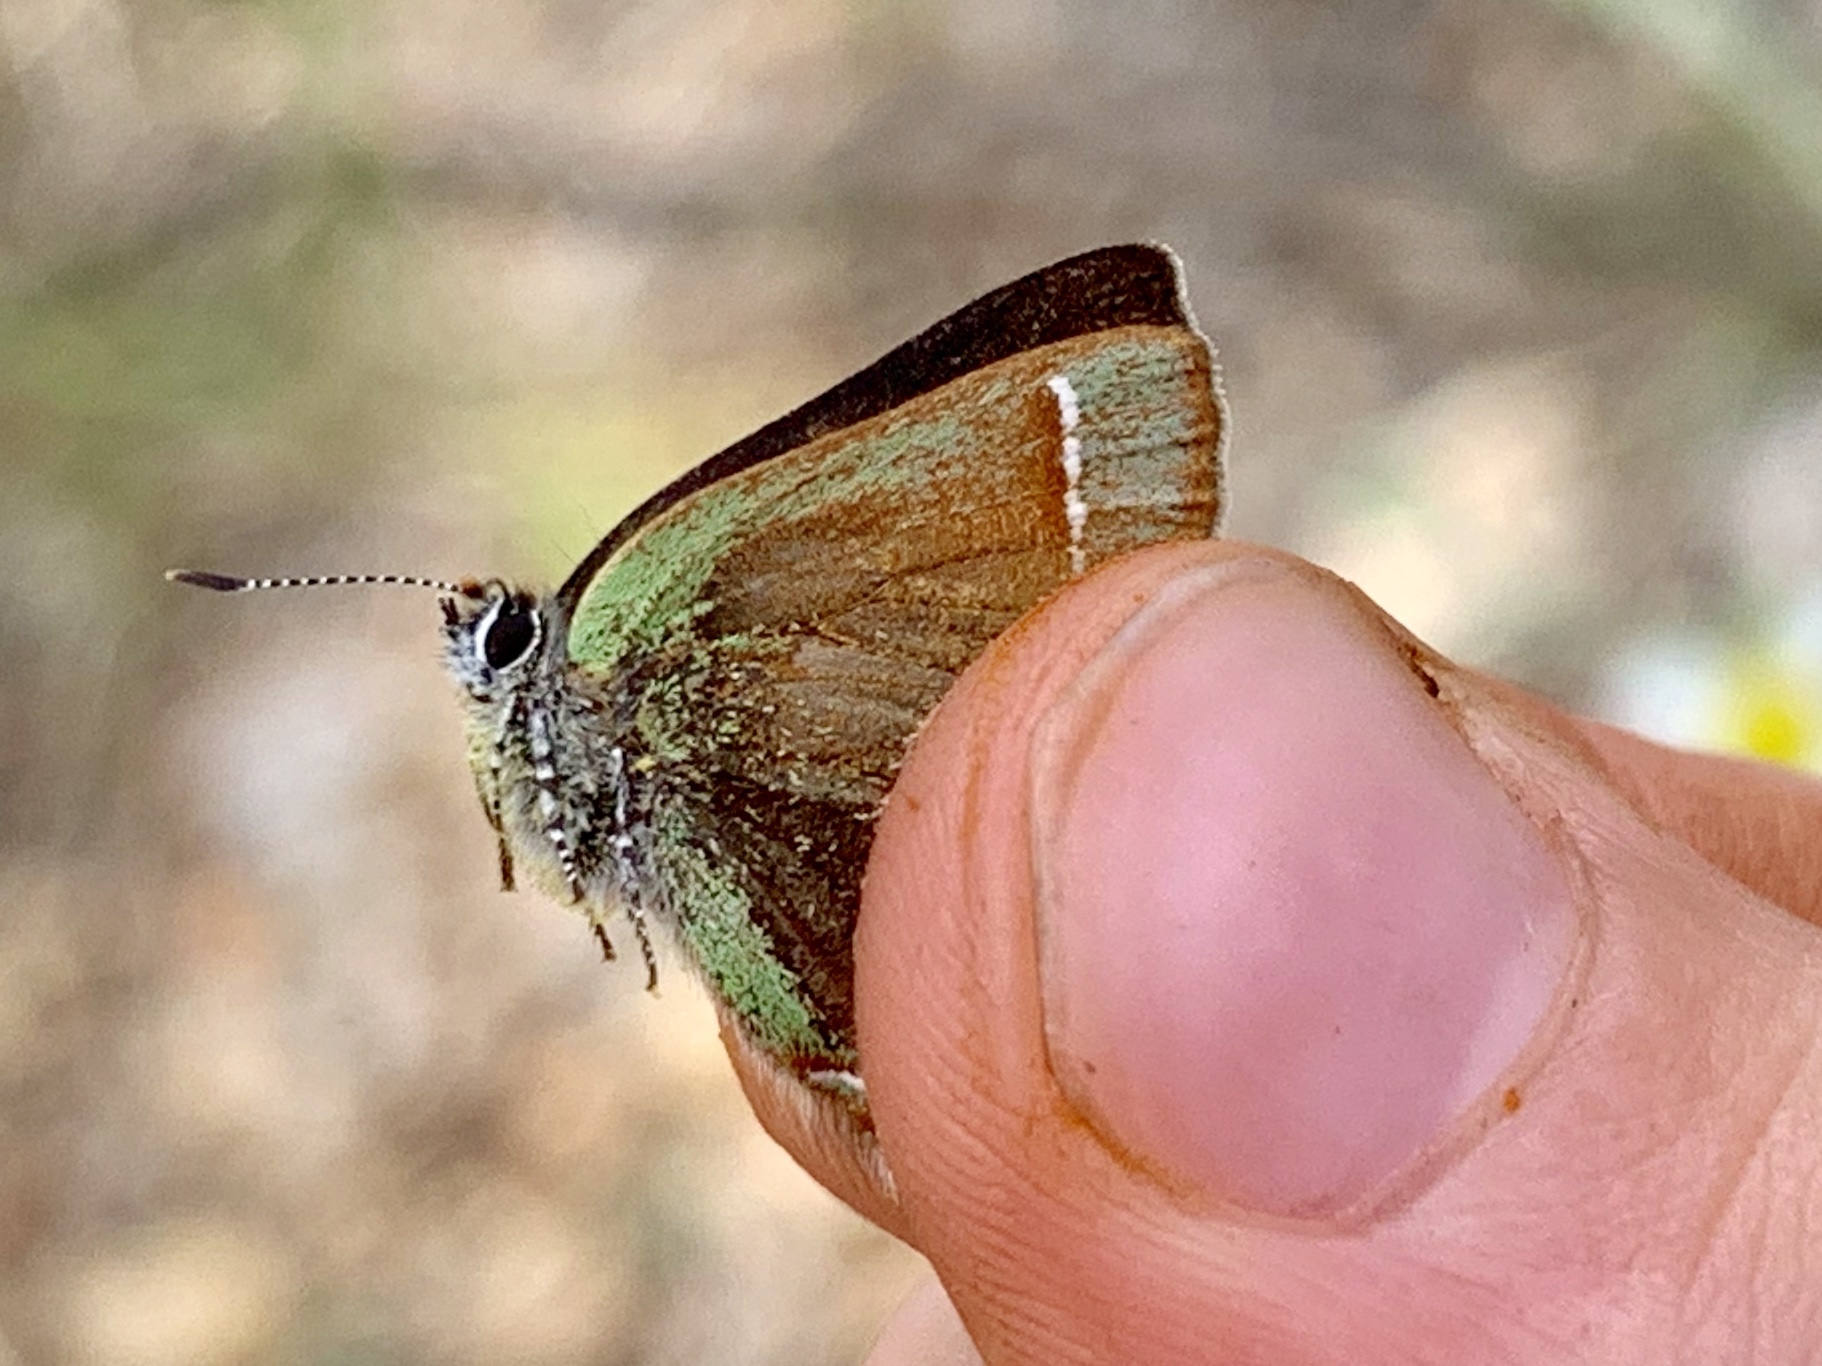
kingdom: Animalia
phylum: Arthropoda
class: Insecta
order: Lepidoptera
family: Lycaenidae
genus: Mitoura
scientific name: Mitoura gryneus
